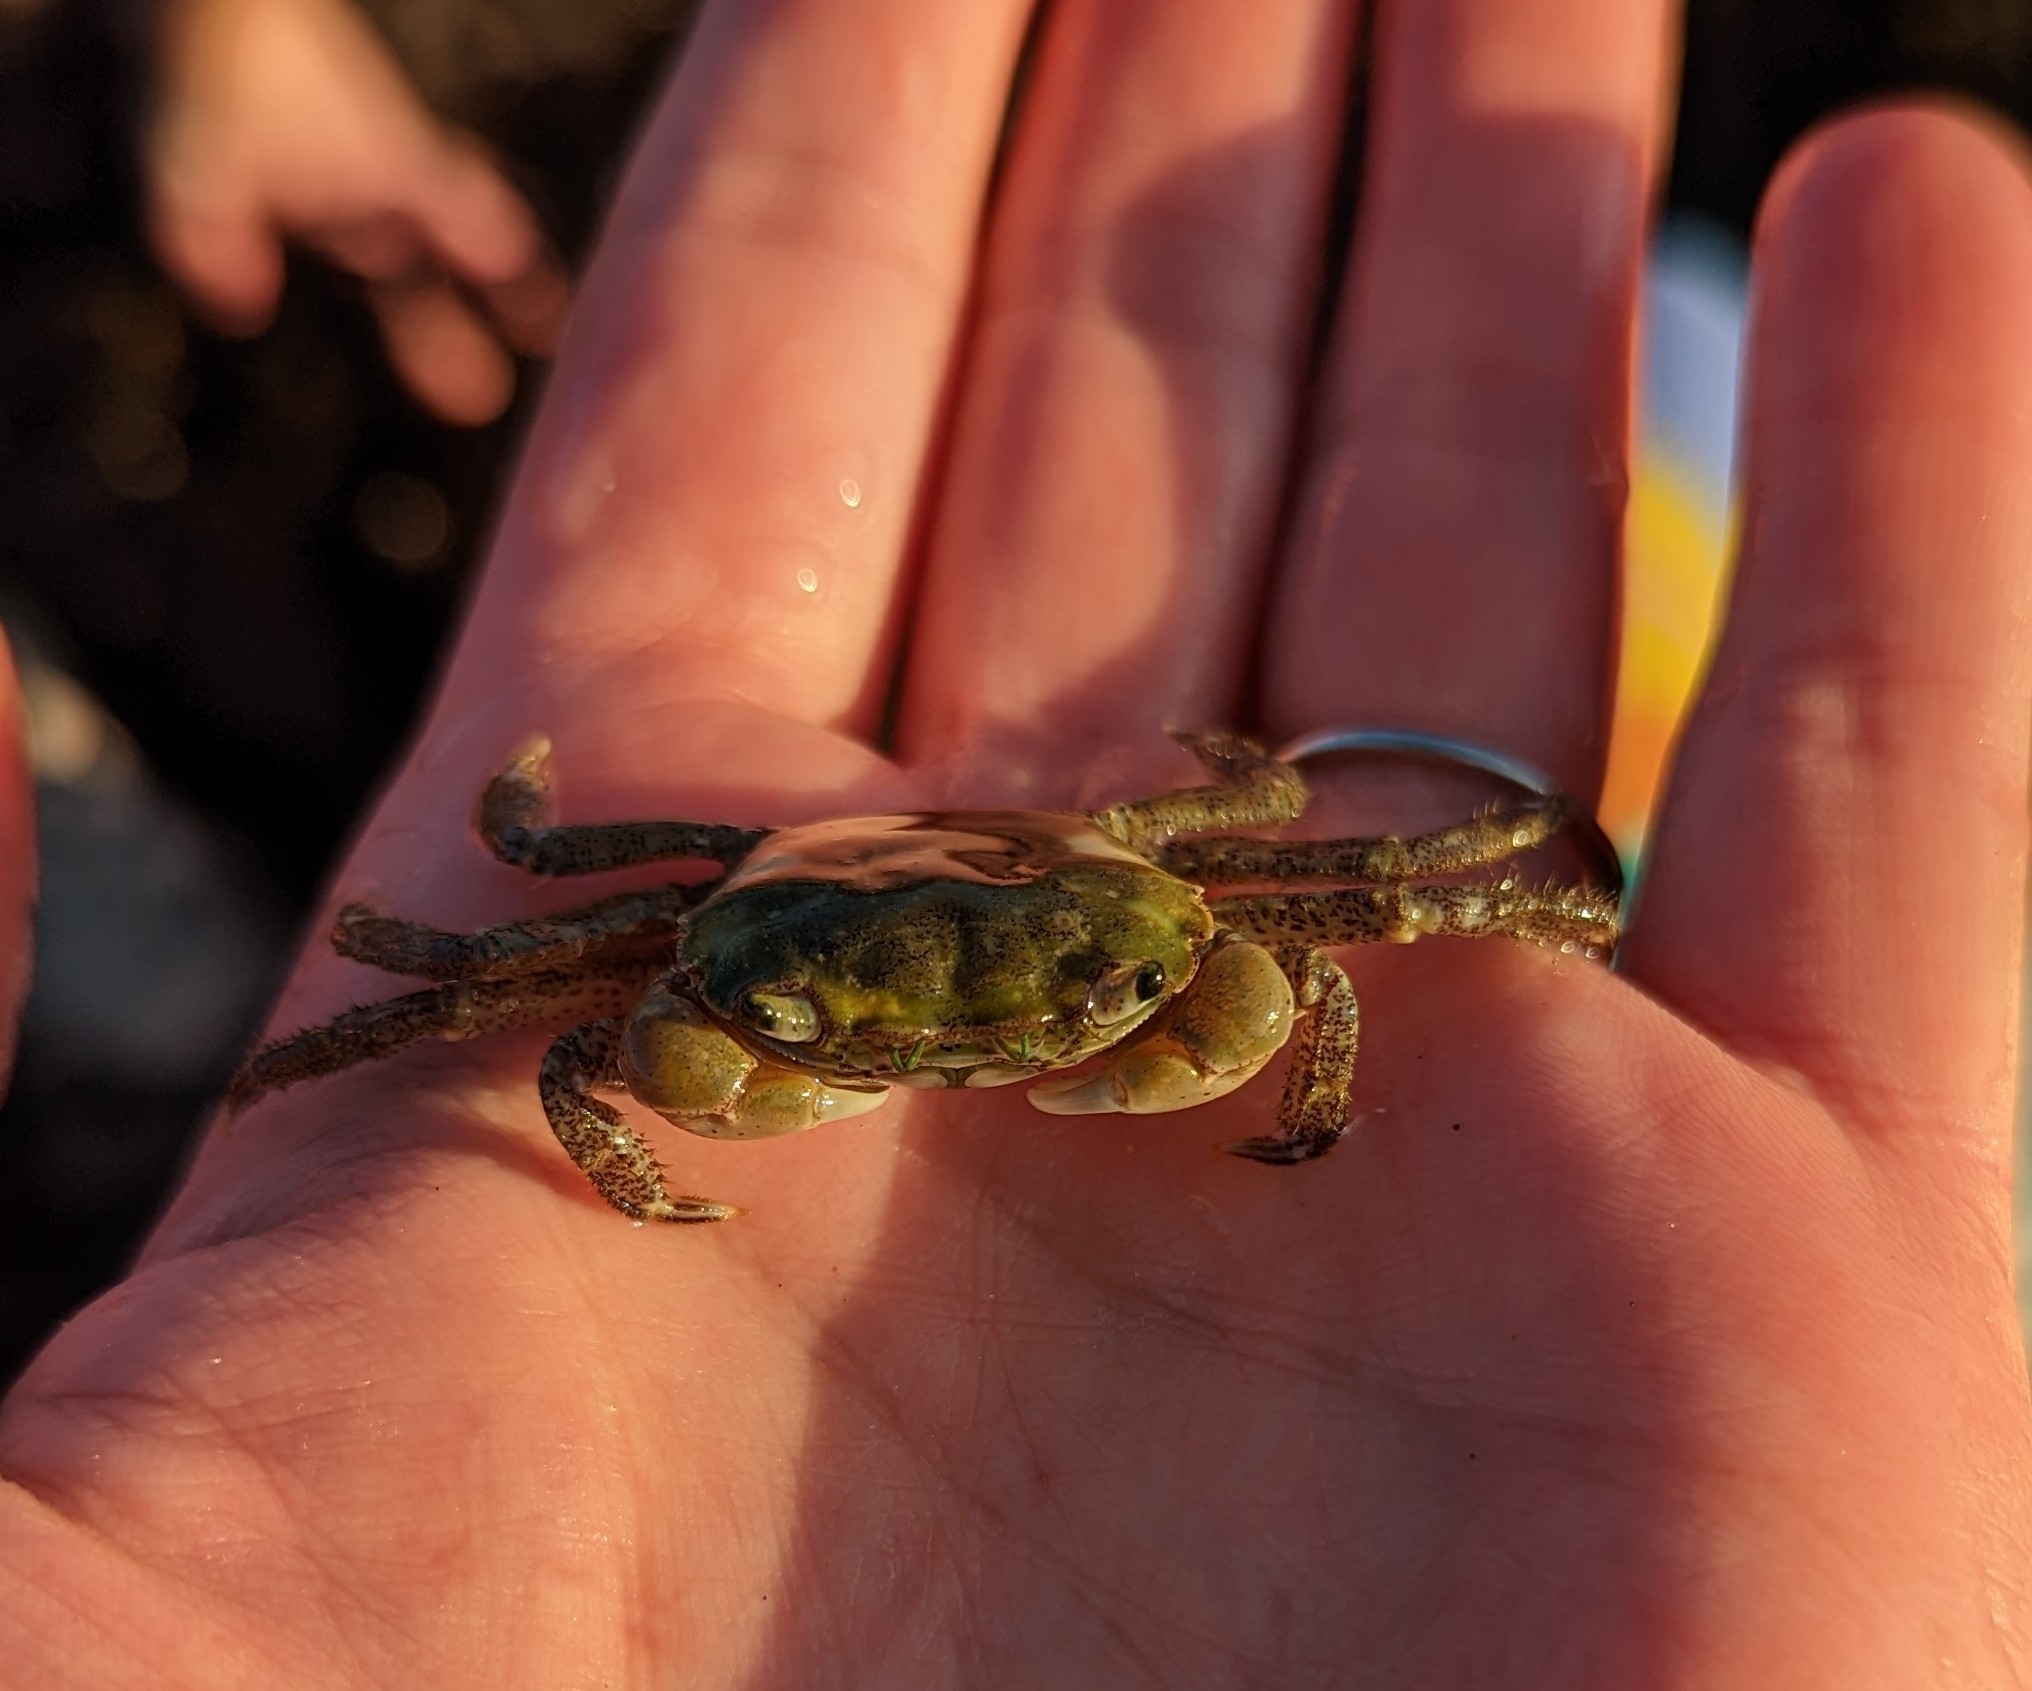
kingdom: Animalia
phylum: Arthropoda
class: Malacostraca
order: Decapoda
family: Varunidae
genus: Hemigrapsus
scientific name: Hemigrapsus oregonensis
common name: Yellow shore crab
